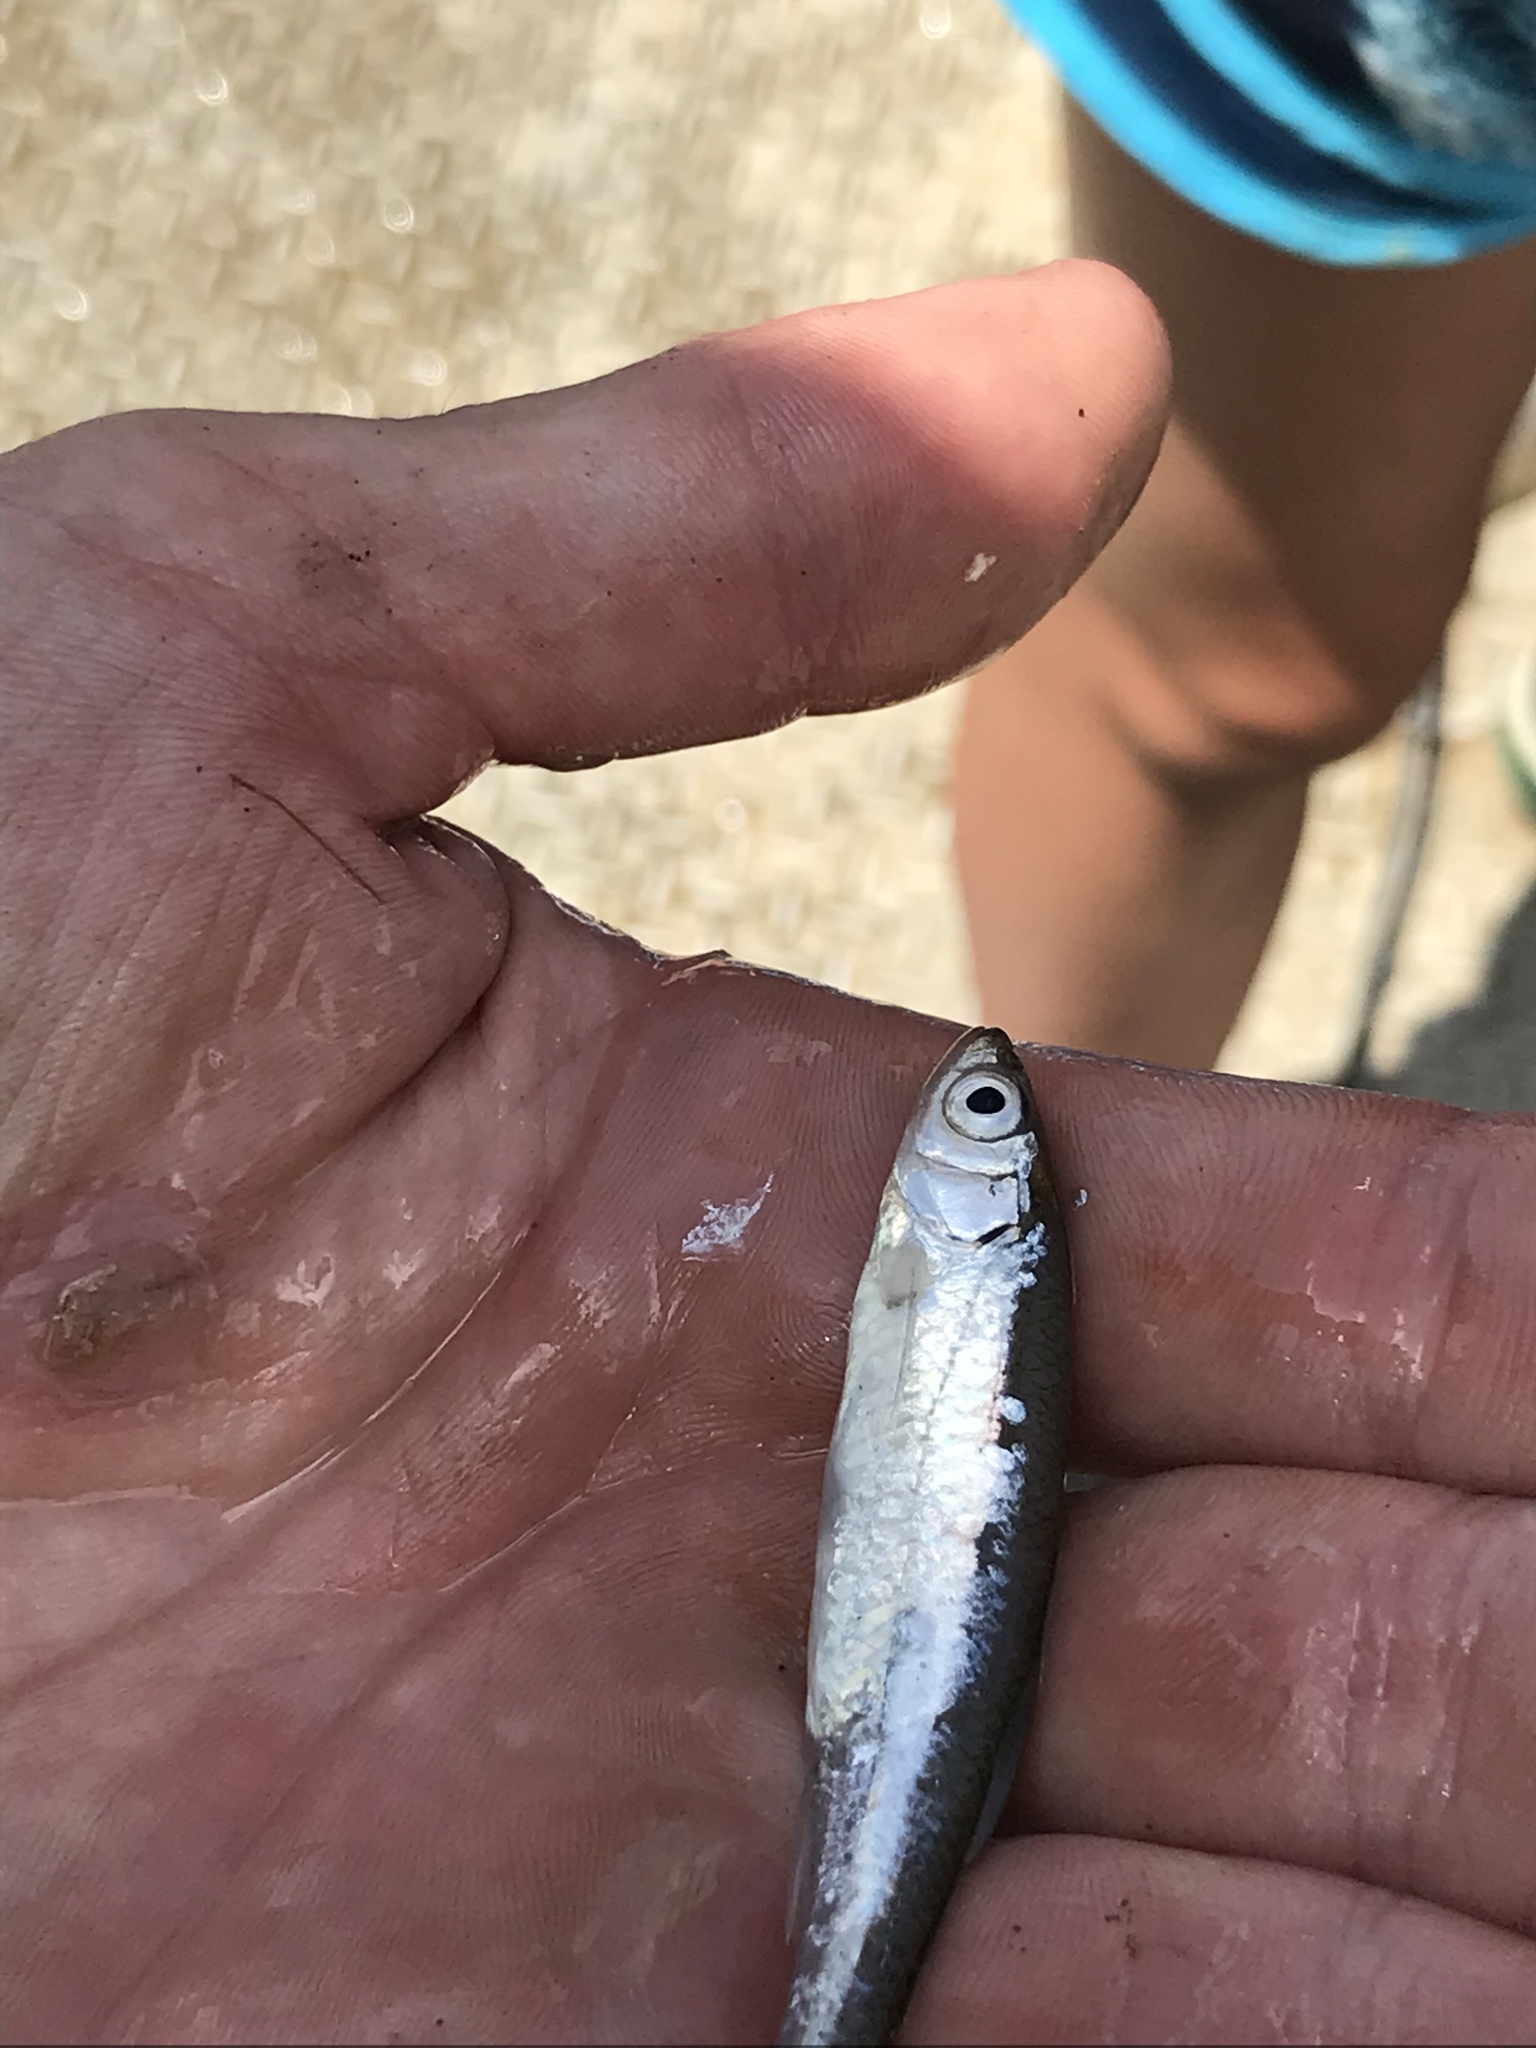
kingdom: Animalia
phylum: Chordata
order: Cypriniformes
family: Cyprinidae
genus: Notropis
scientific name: Notropis atherinoides
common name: Emerald shiner
